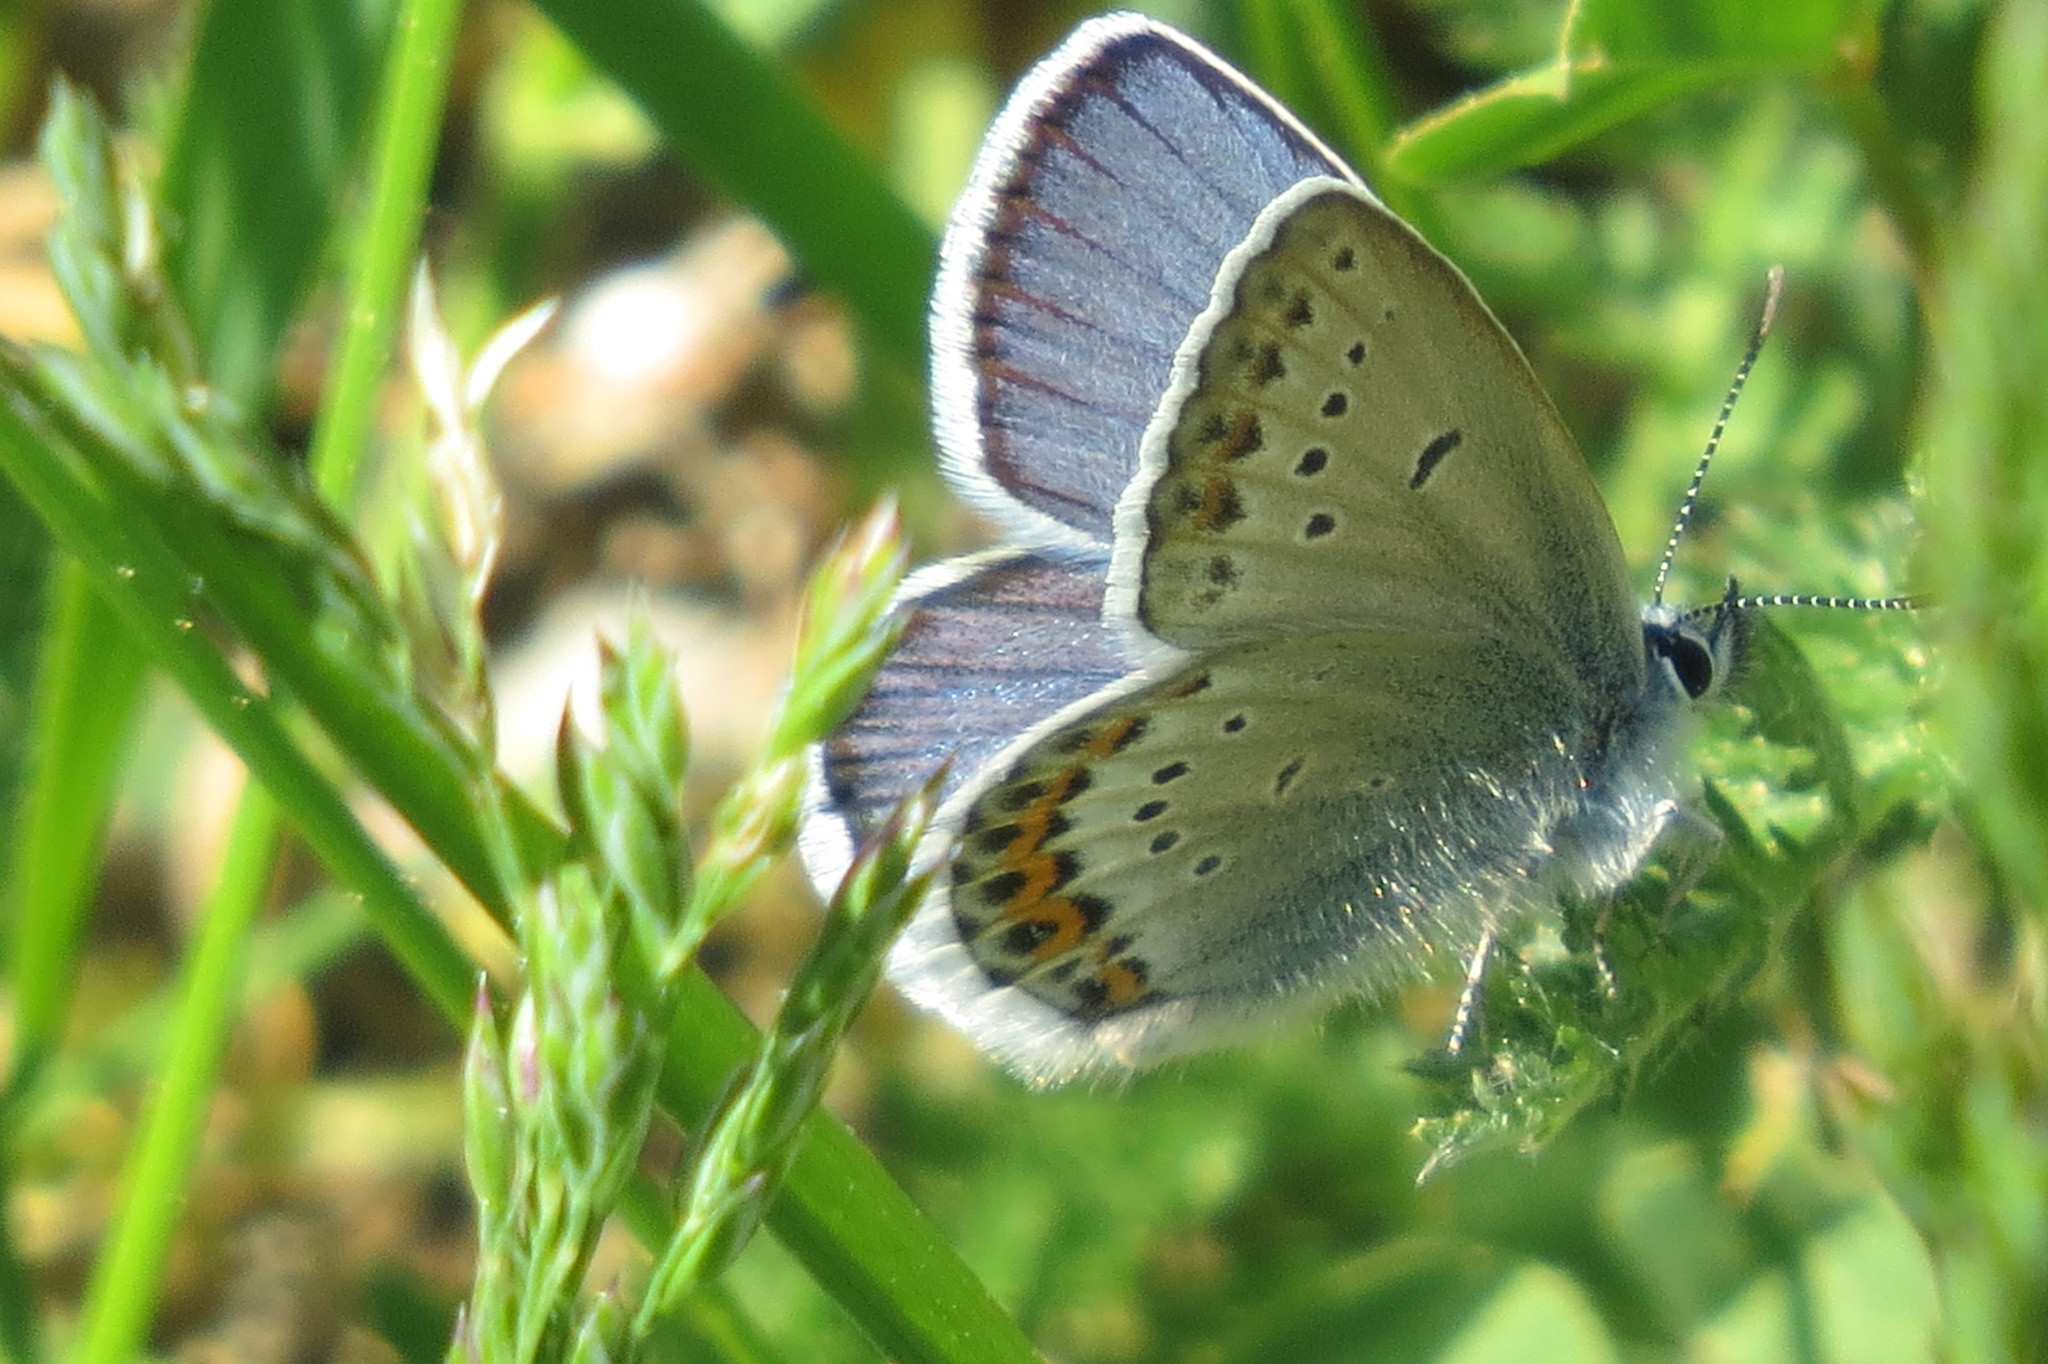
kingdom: Animalia
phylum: Arthropoda
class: Insecta
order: Lepidoptera
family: Lycaenidae
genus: Lycaeides
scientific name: Lycaeides idas
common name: Northern blue
